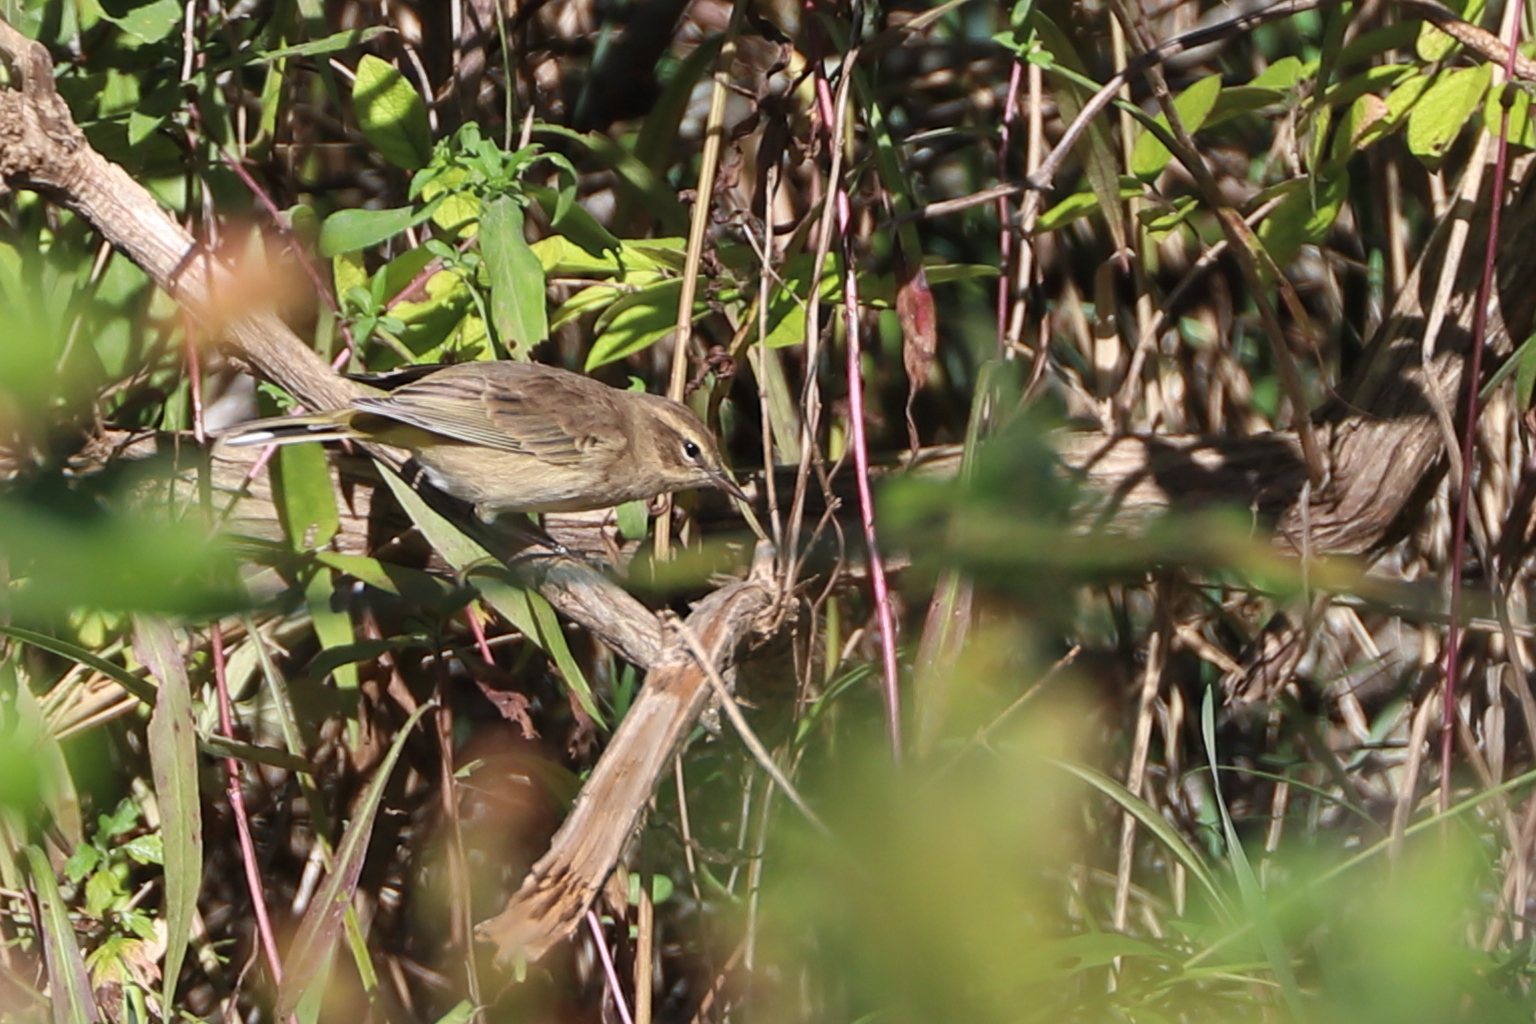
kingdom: Animalia
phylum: Chordata
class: Aves
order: Passeriformes
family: Parulidae
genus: Setophaga
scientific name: Setophaga palmarum
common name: Palm warbler
